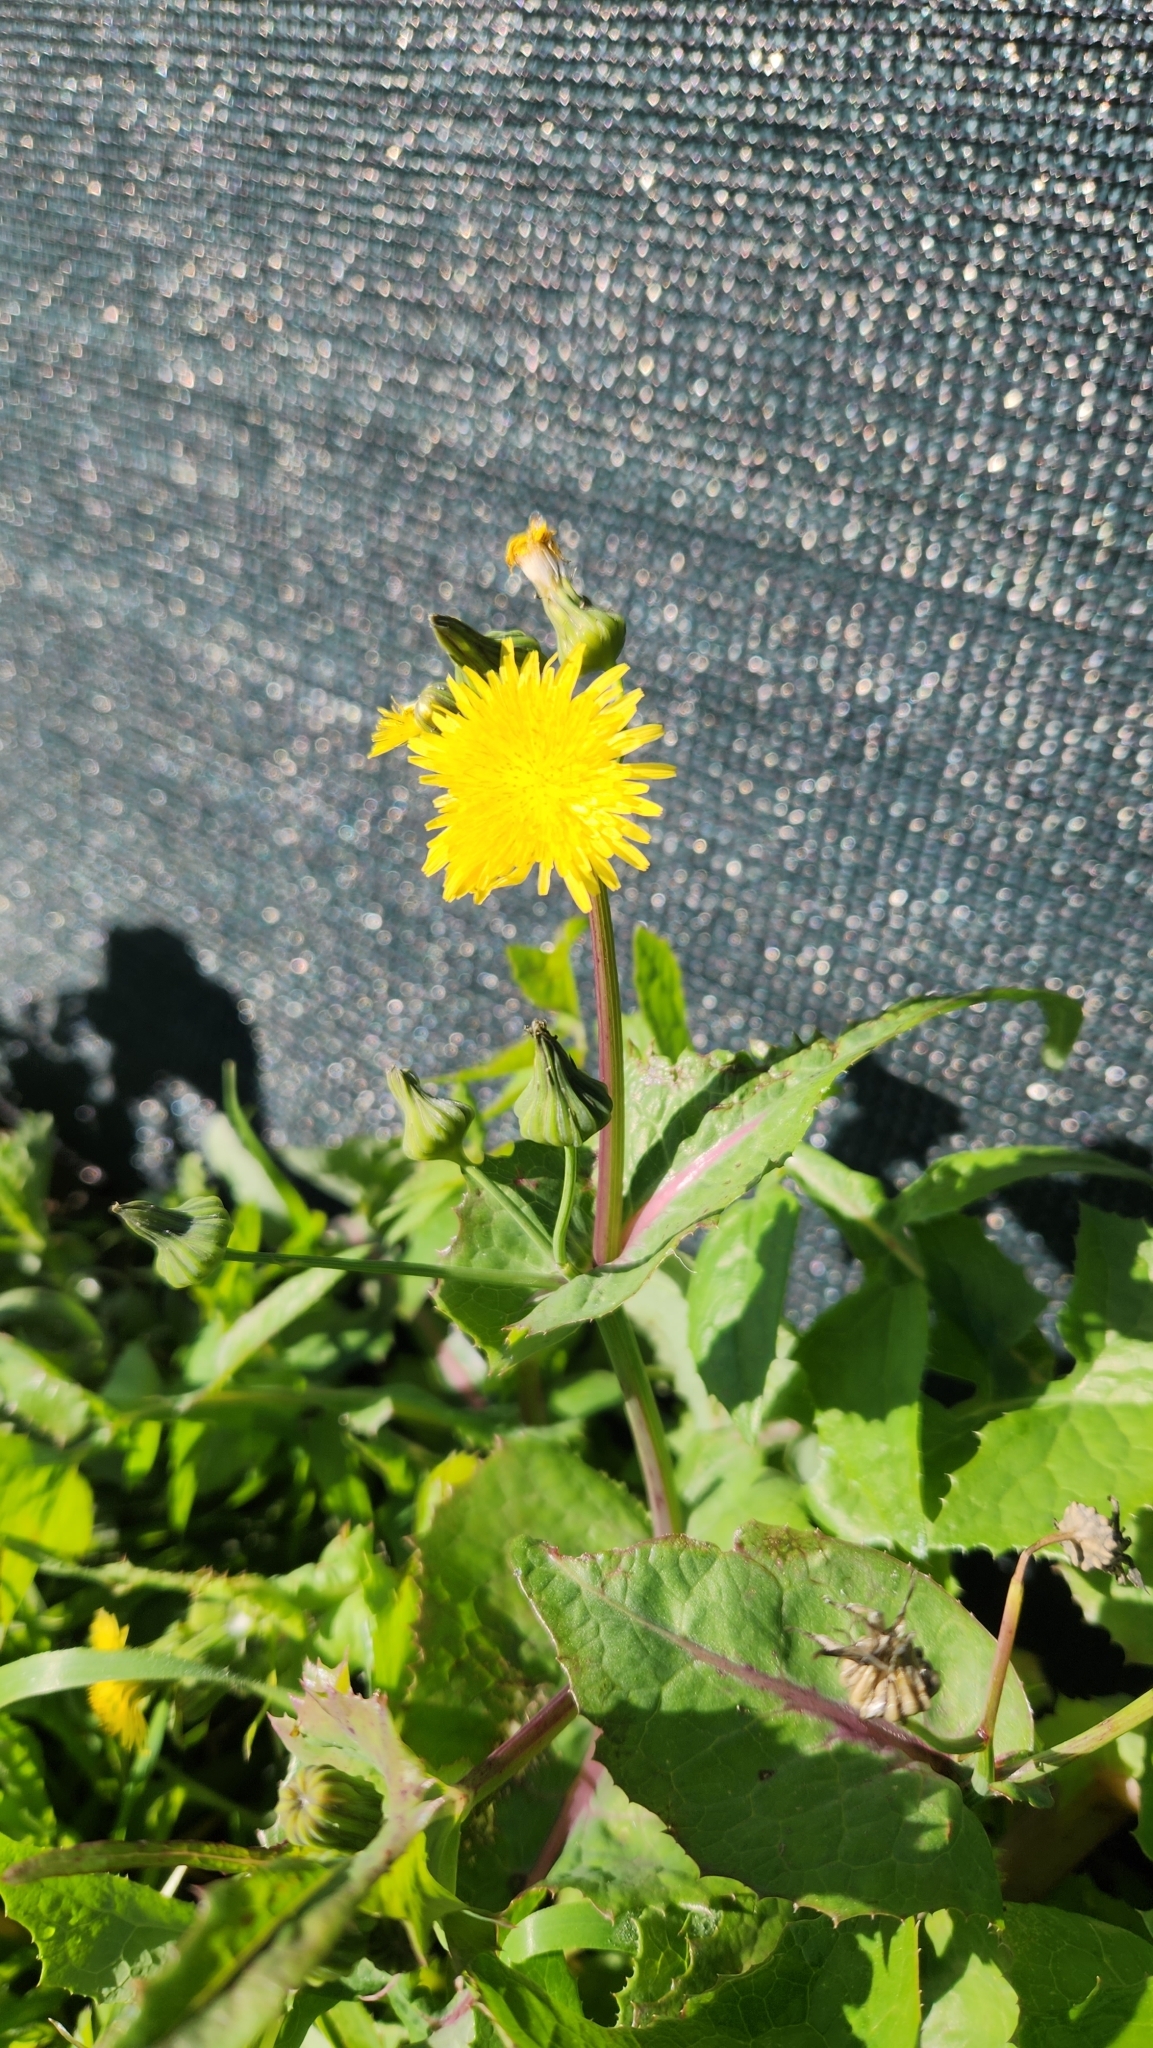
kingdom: Plantae
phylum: Tracheophyta
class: Magnoliopsida
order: Asterales
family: Asteraceae
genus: Sonchus
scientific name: Sonchus oleraceus
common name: Common sowthistle
